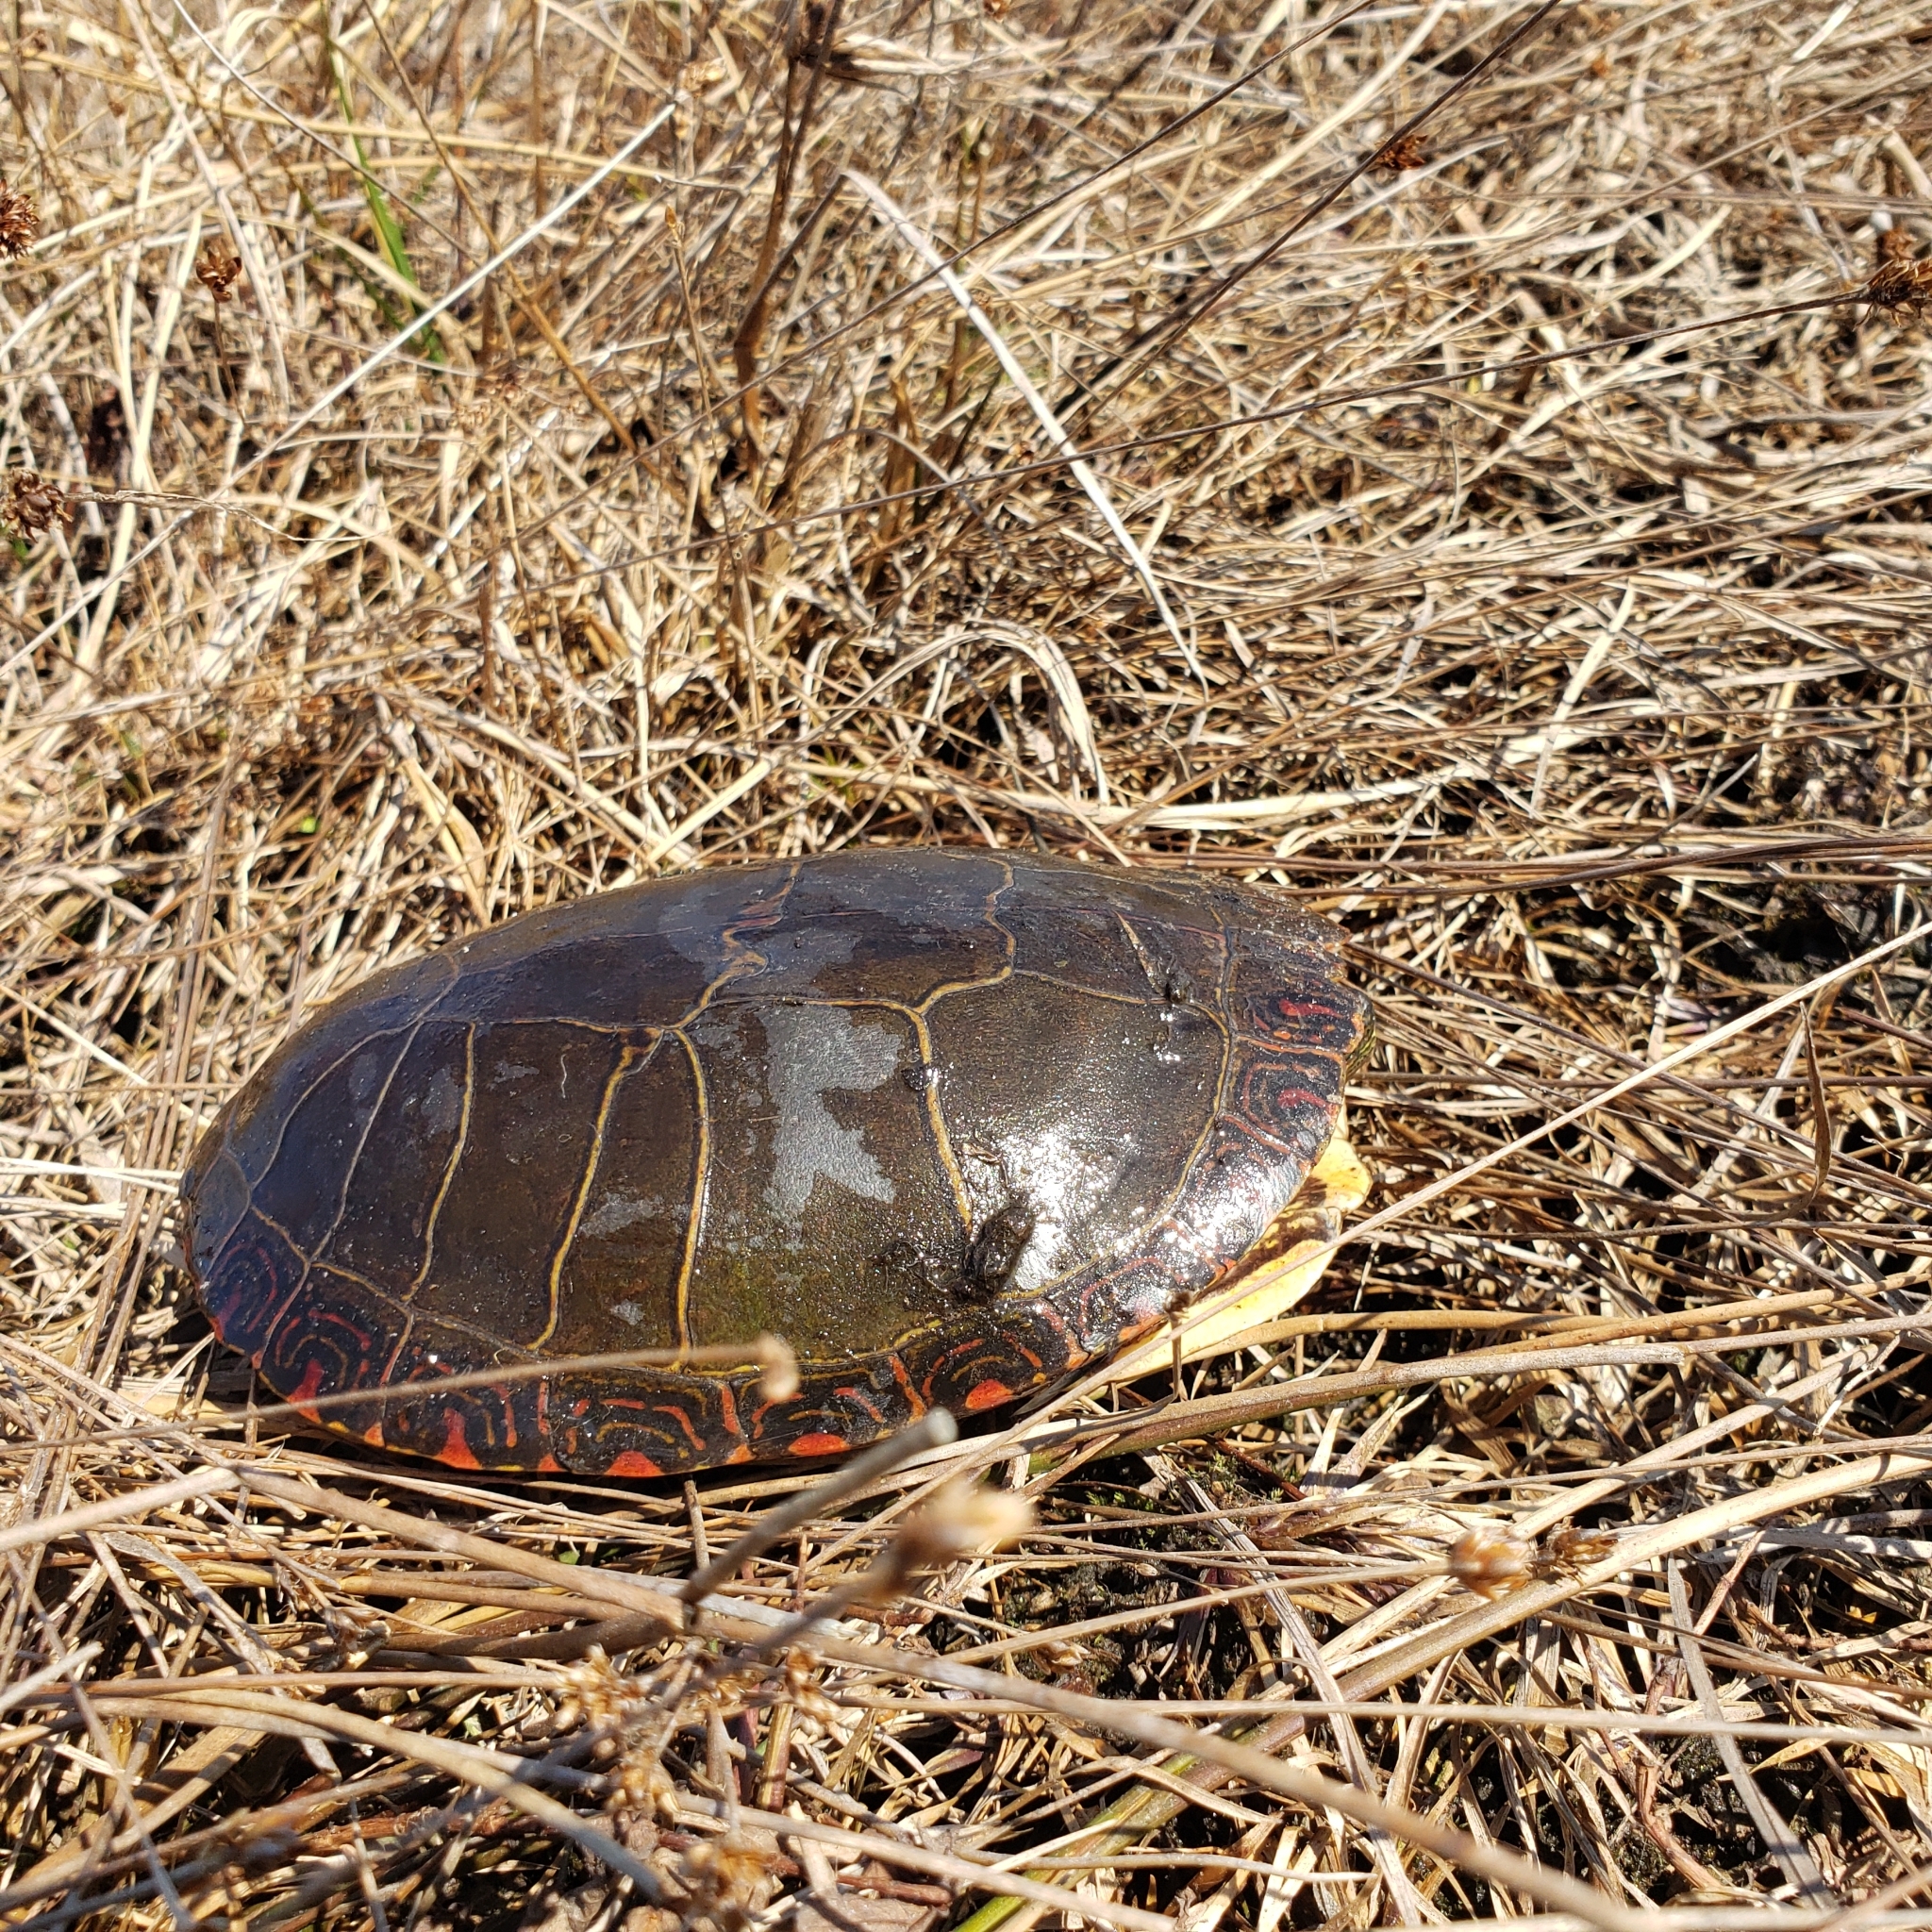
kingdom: Animalia
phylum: Chordata
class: Testudines
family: Emydidae
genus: Chrysemys
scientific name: Chrysemys picta
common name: Painted turtle
